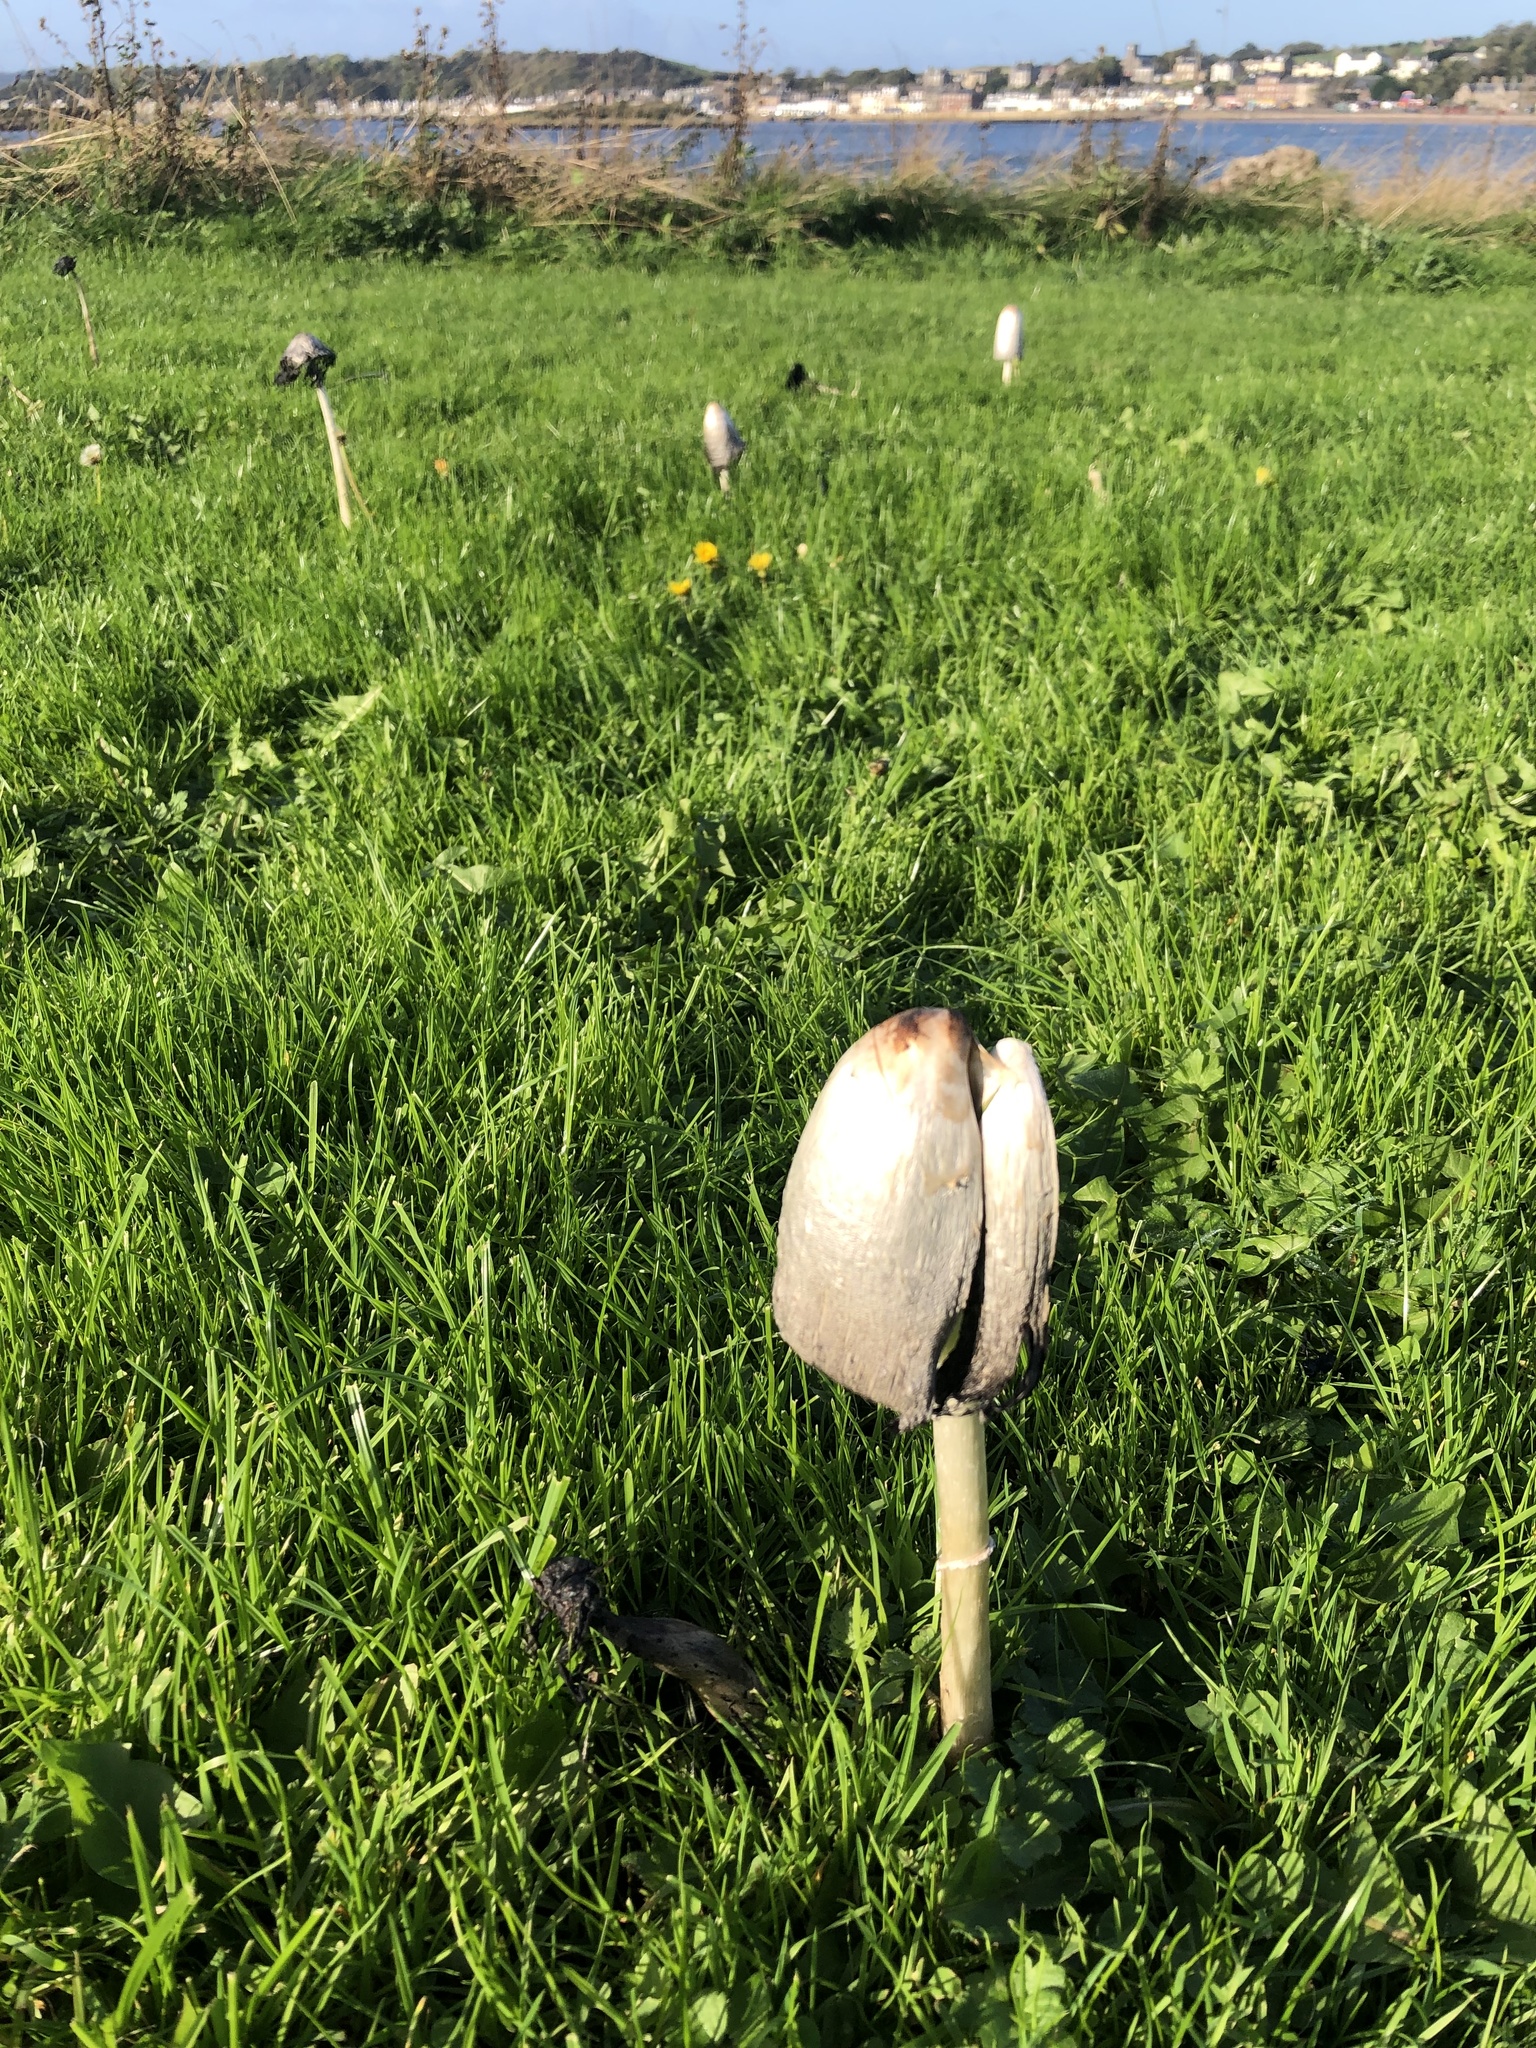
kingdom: Fungi
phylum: Basidiomycota
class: Agaricomycetes
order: Agaricales
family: Agaricaceae
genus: Coprinus
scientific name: Coprinus comatus
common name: Lawyer's wig
